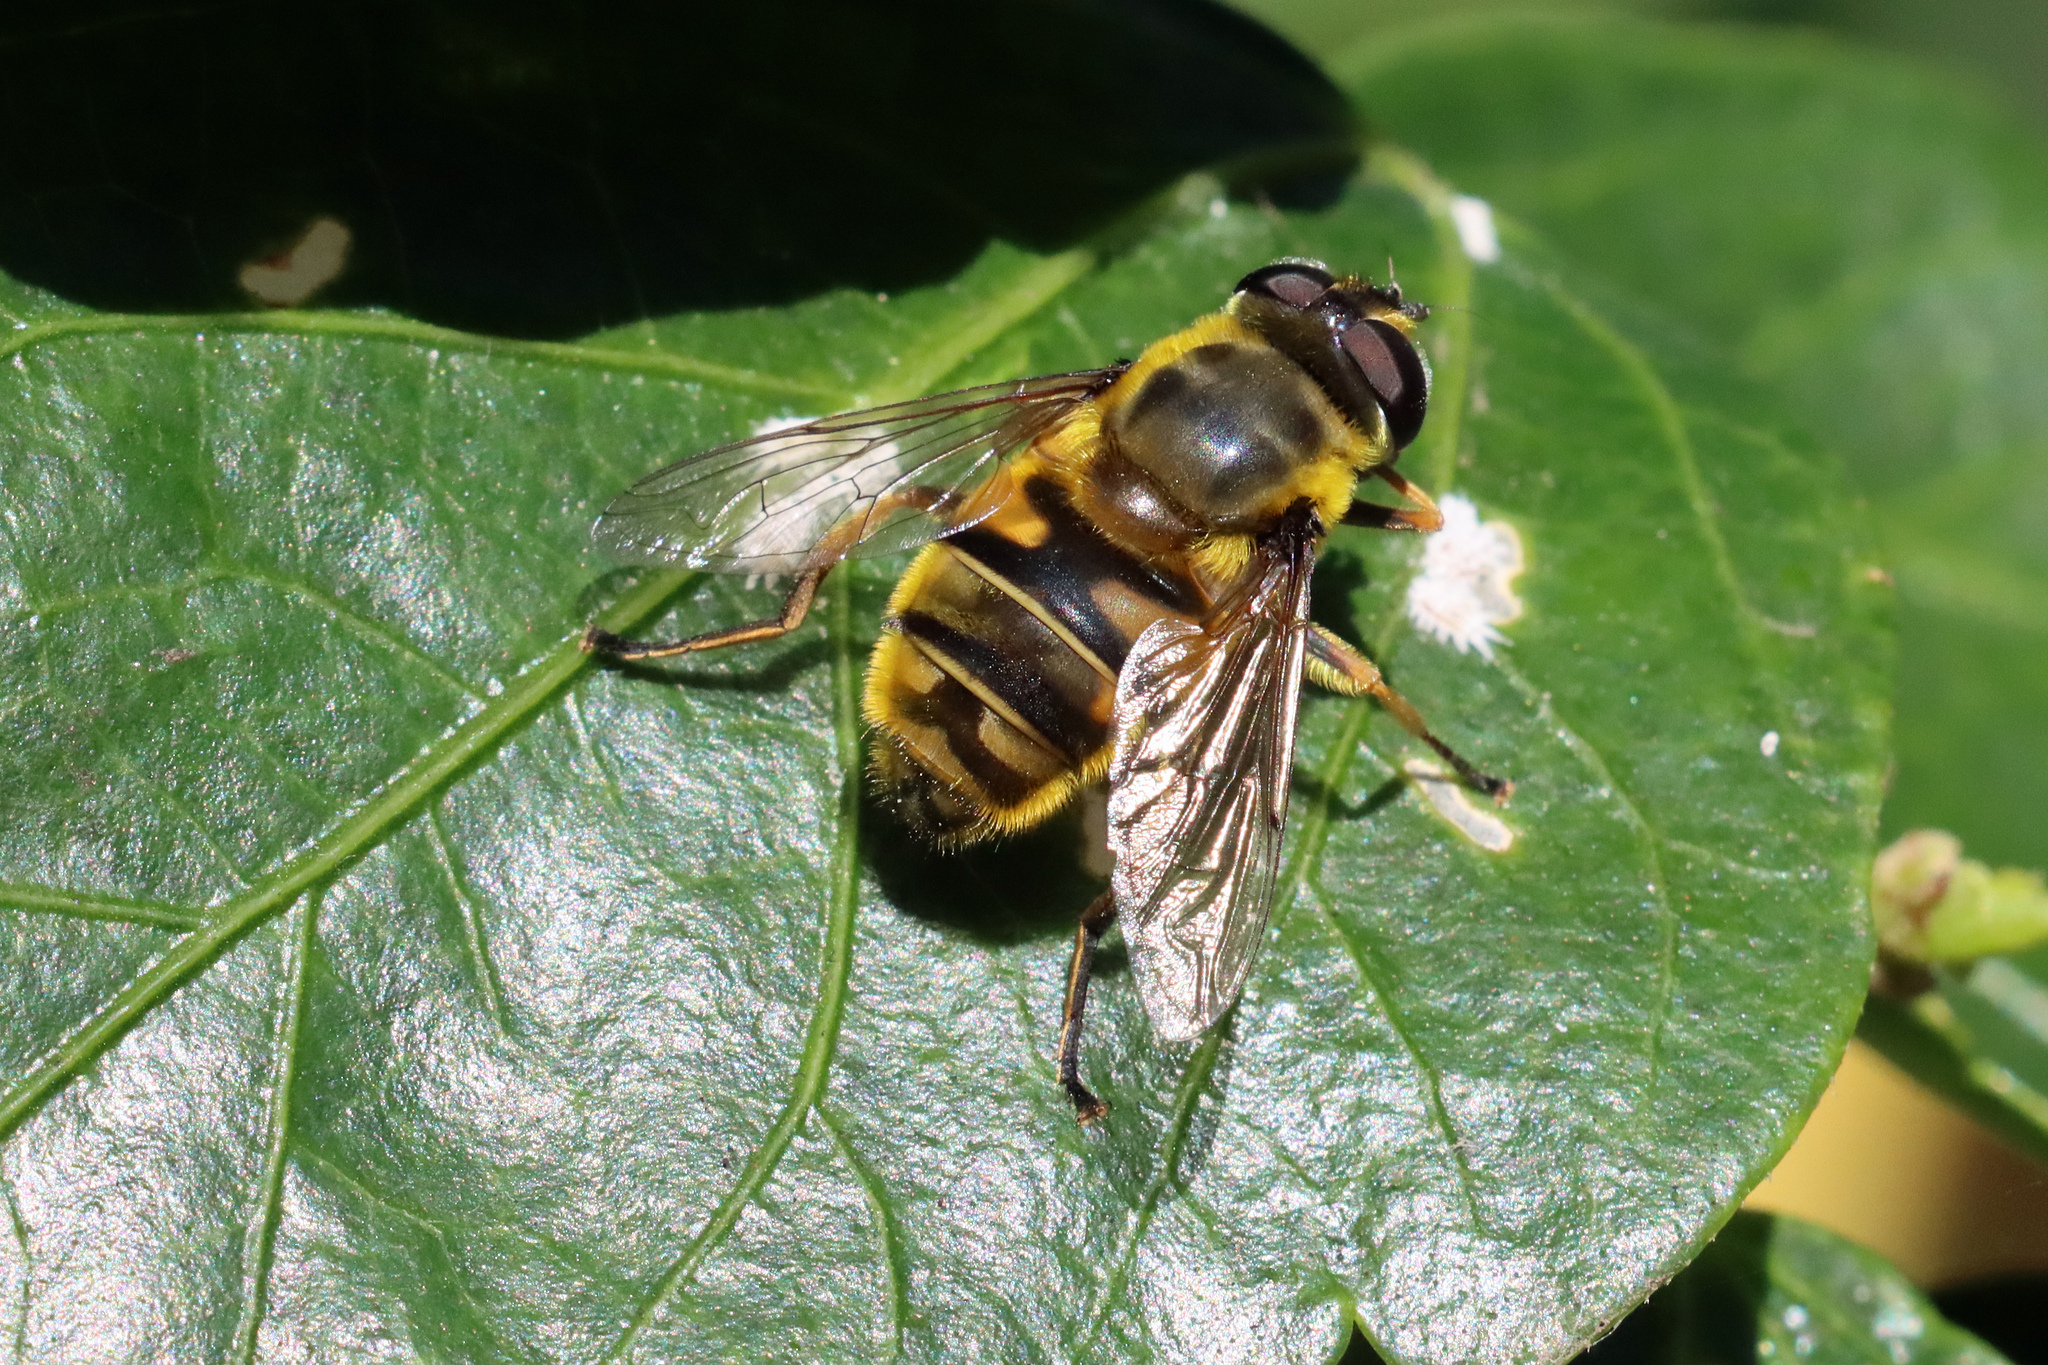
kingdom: Animalia
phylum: Arthropoda
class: Insecta
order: Diptera
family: Syrphidae
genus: Myathropa
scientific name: Myathropa florea
